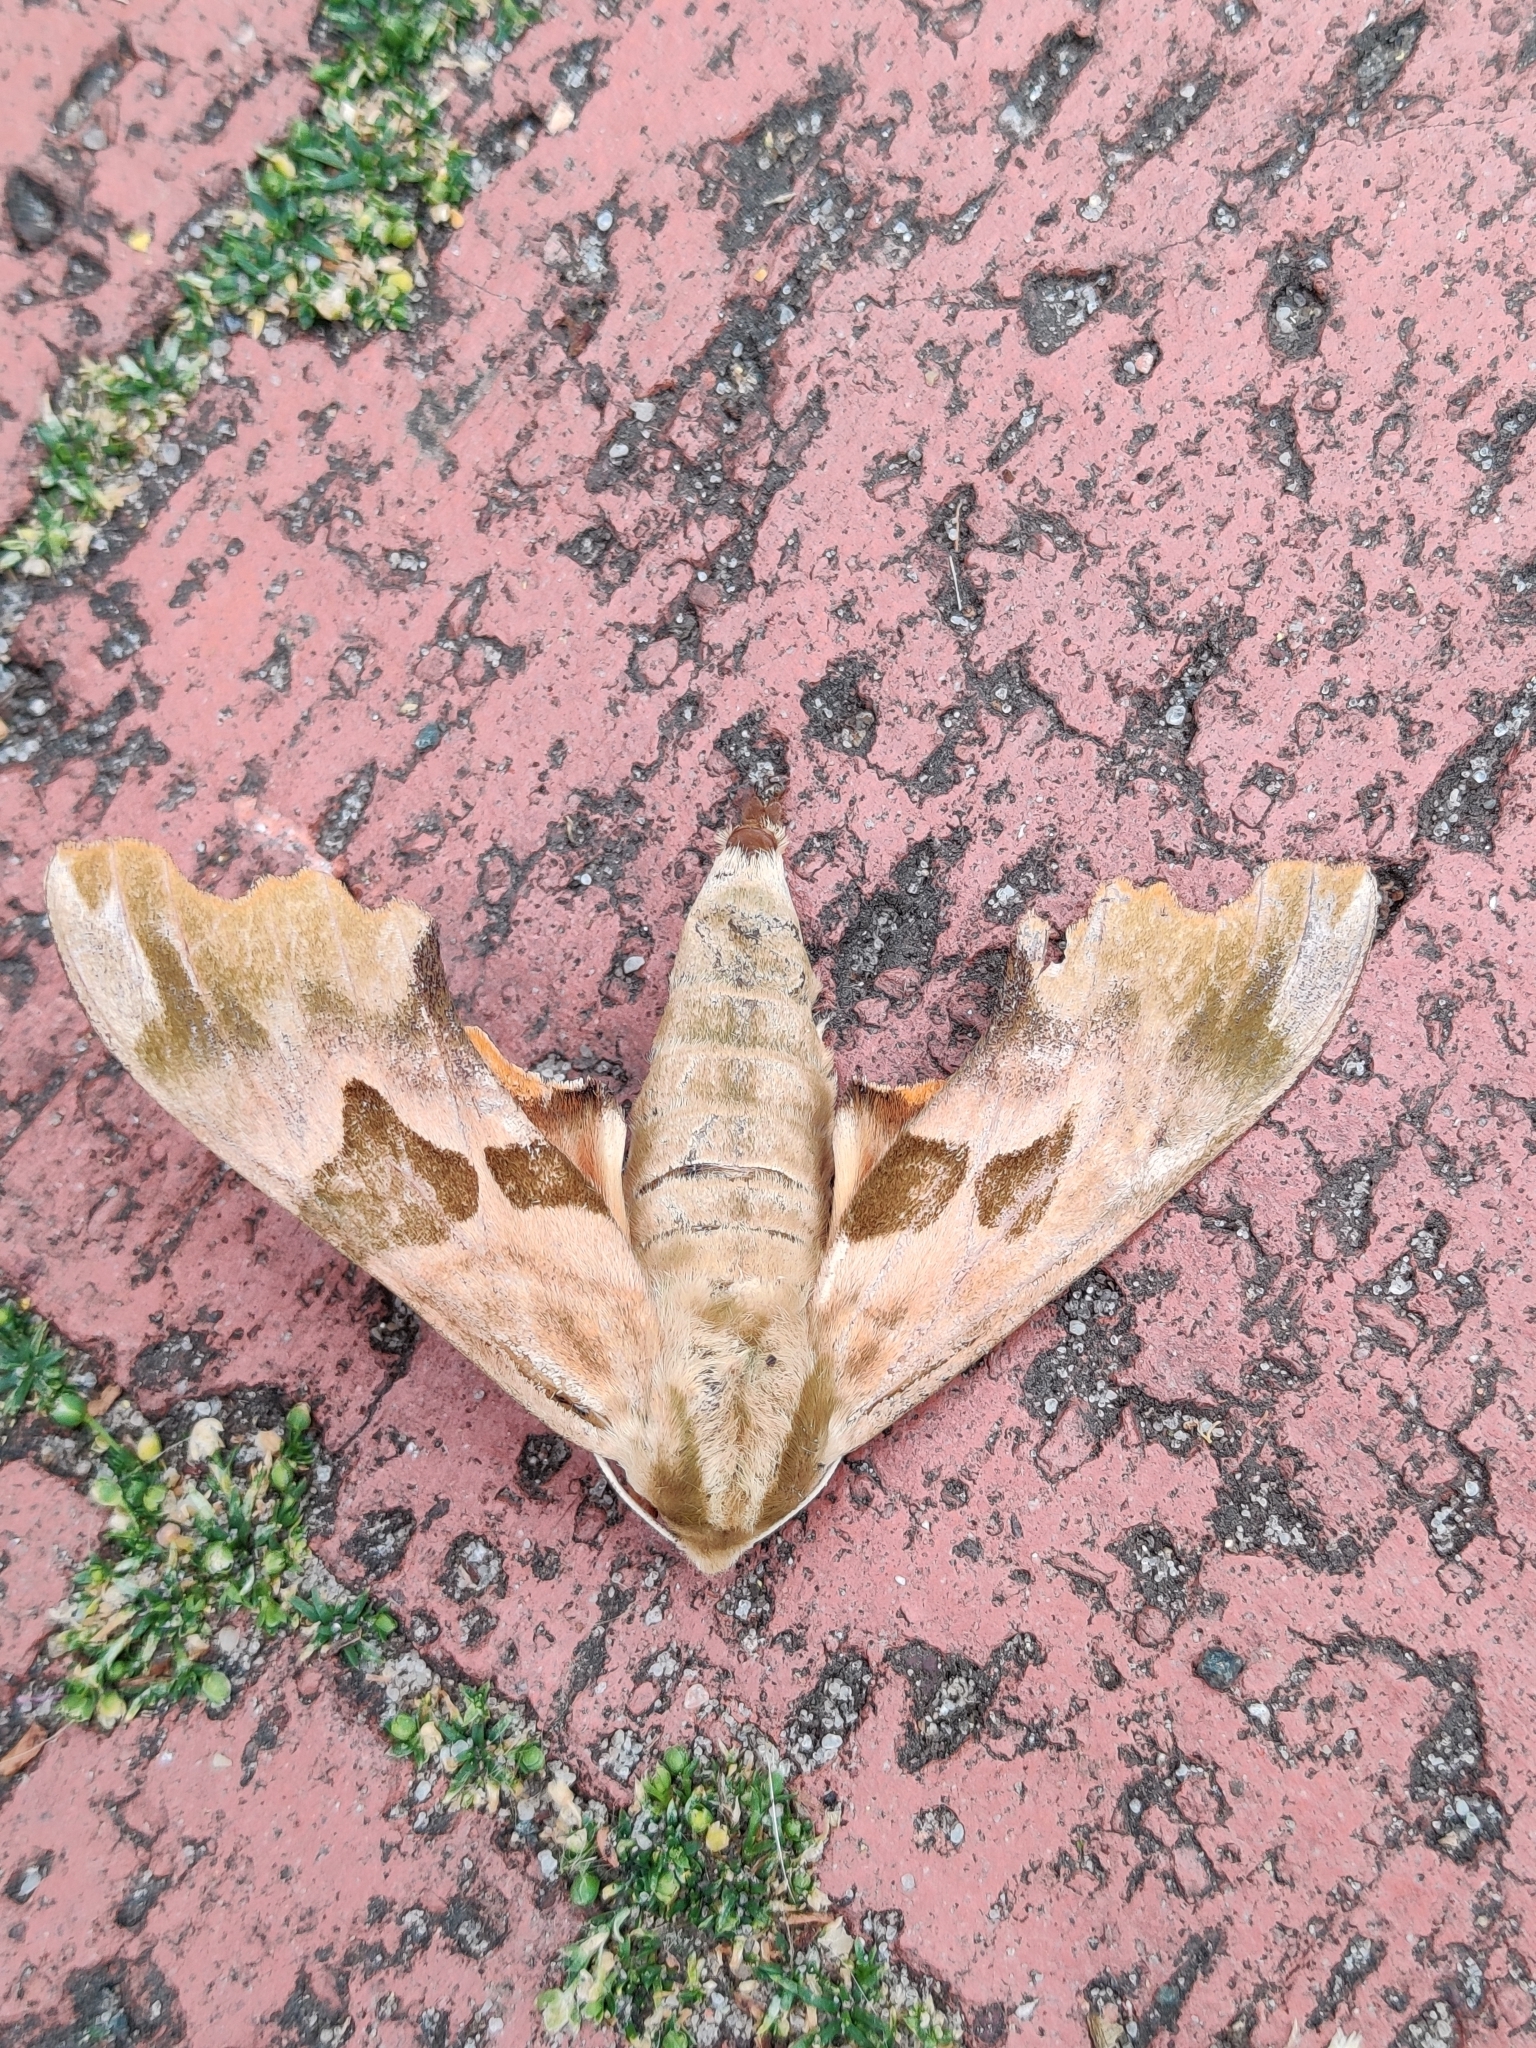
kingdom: Animalia
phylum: Arthropoda
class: Insecta
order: Lepidoptera
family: Sphingidae
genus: Mimas
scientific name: Mimas tiliae
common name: Lime hawk-moth
